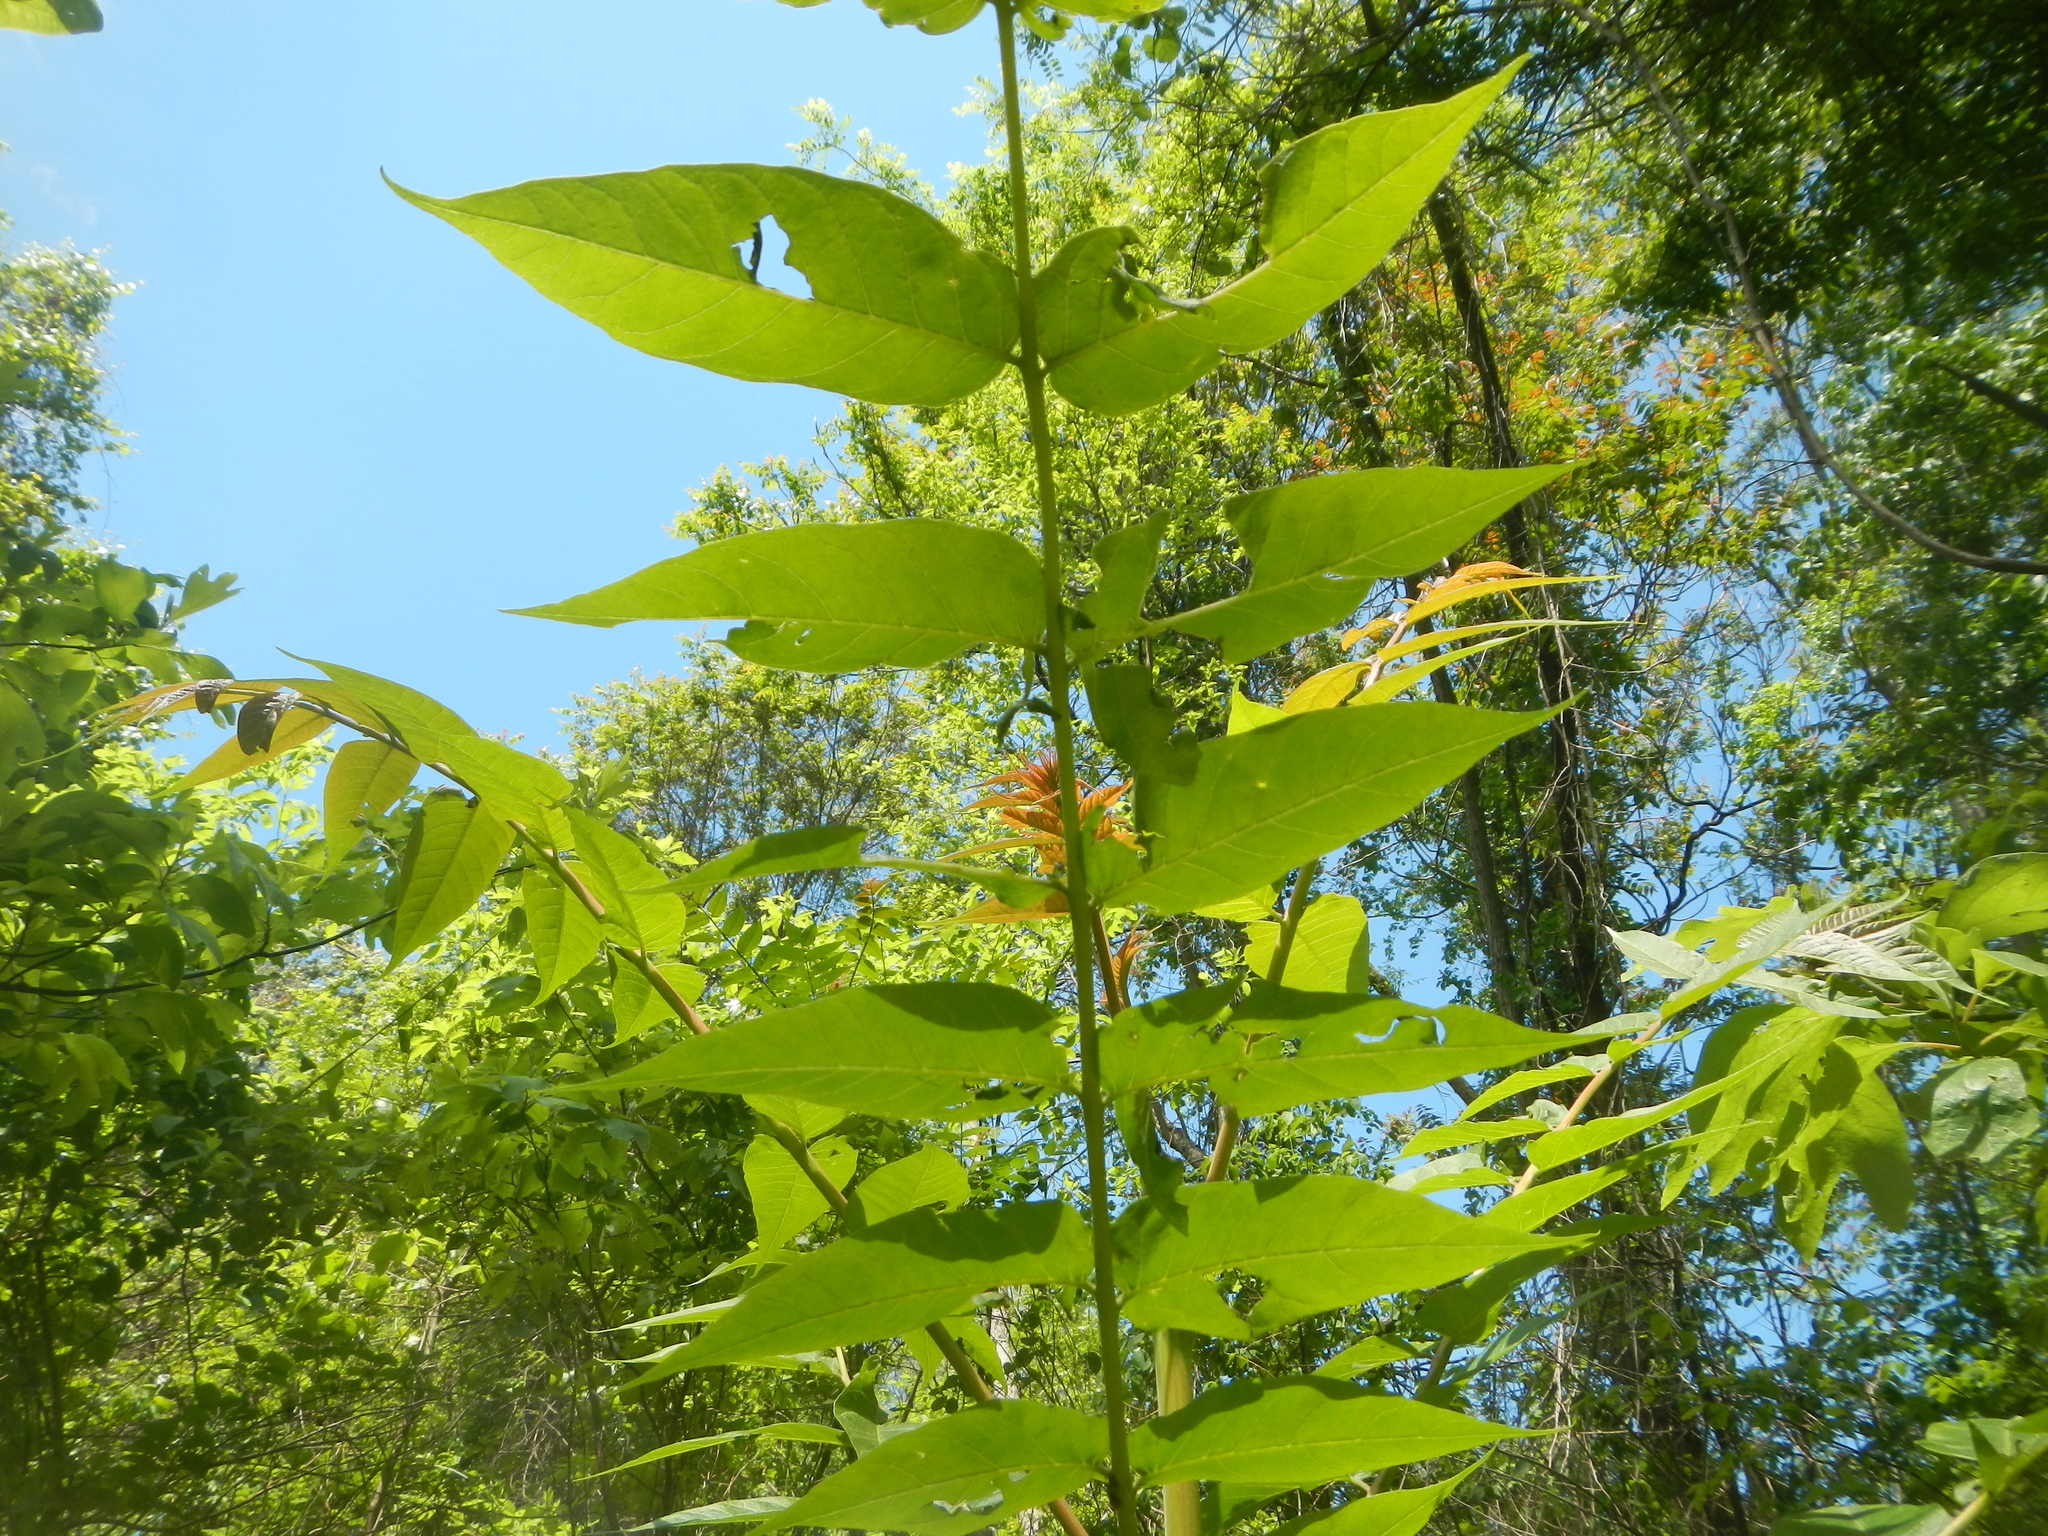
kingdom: Plantae
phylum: Tracheophyta
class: Magnoliopsida
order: Sapindales
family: Simaroubaceae
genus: Ailanthus
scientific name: Ailanthus altissima
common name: Tree-of-heaven
